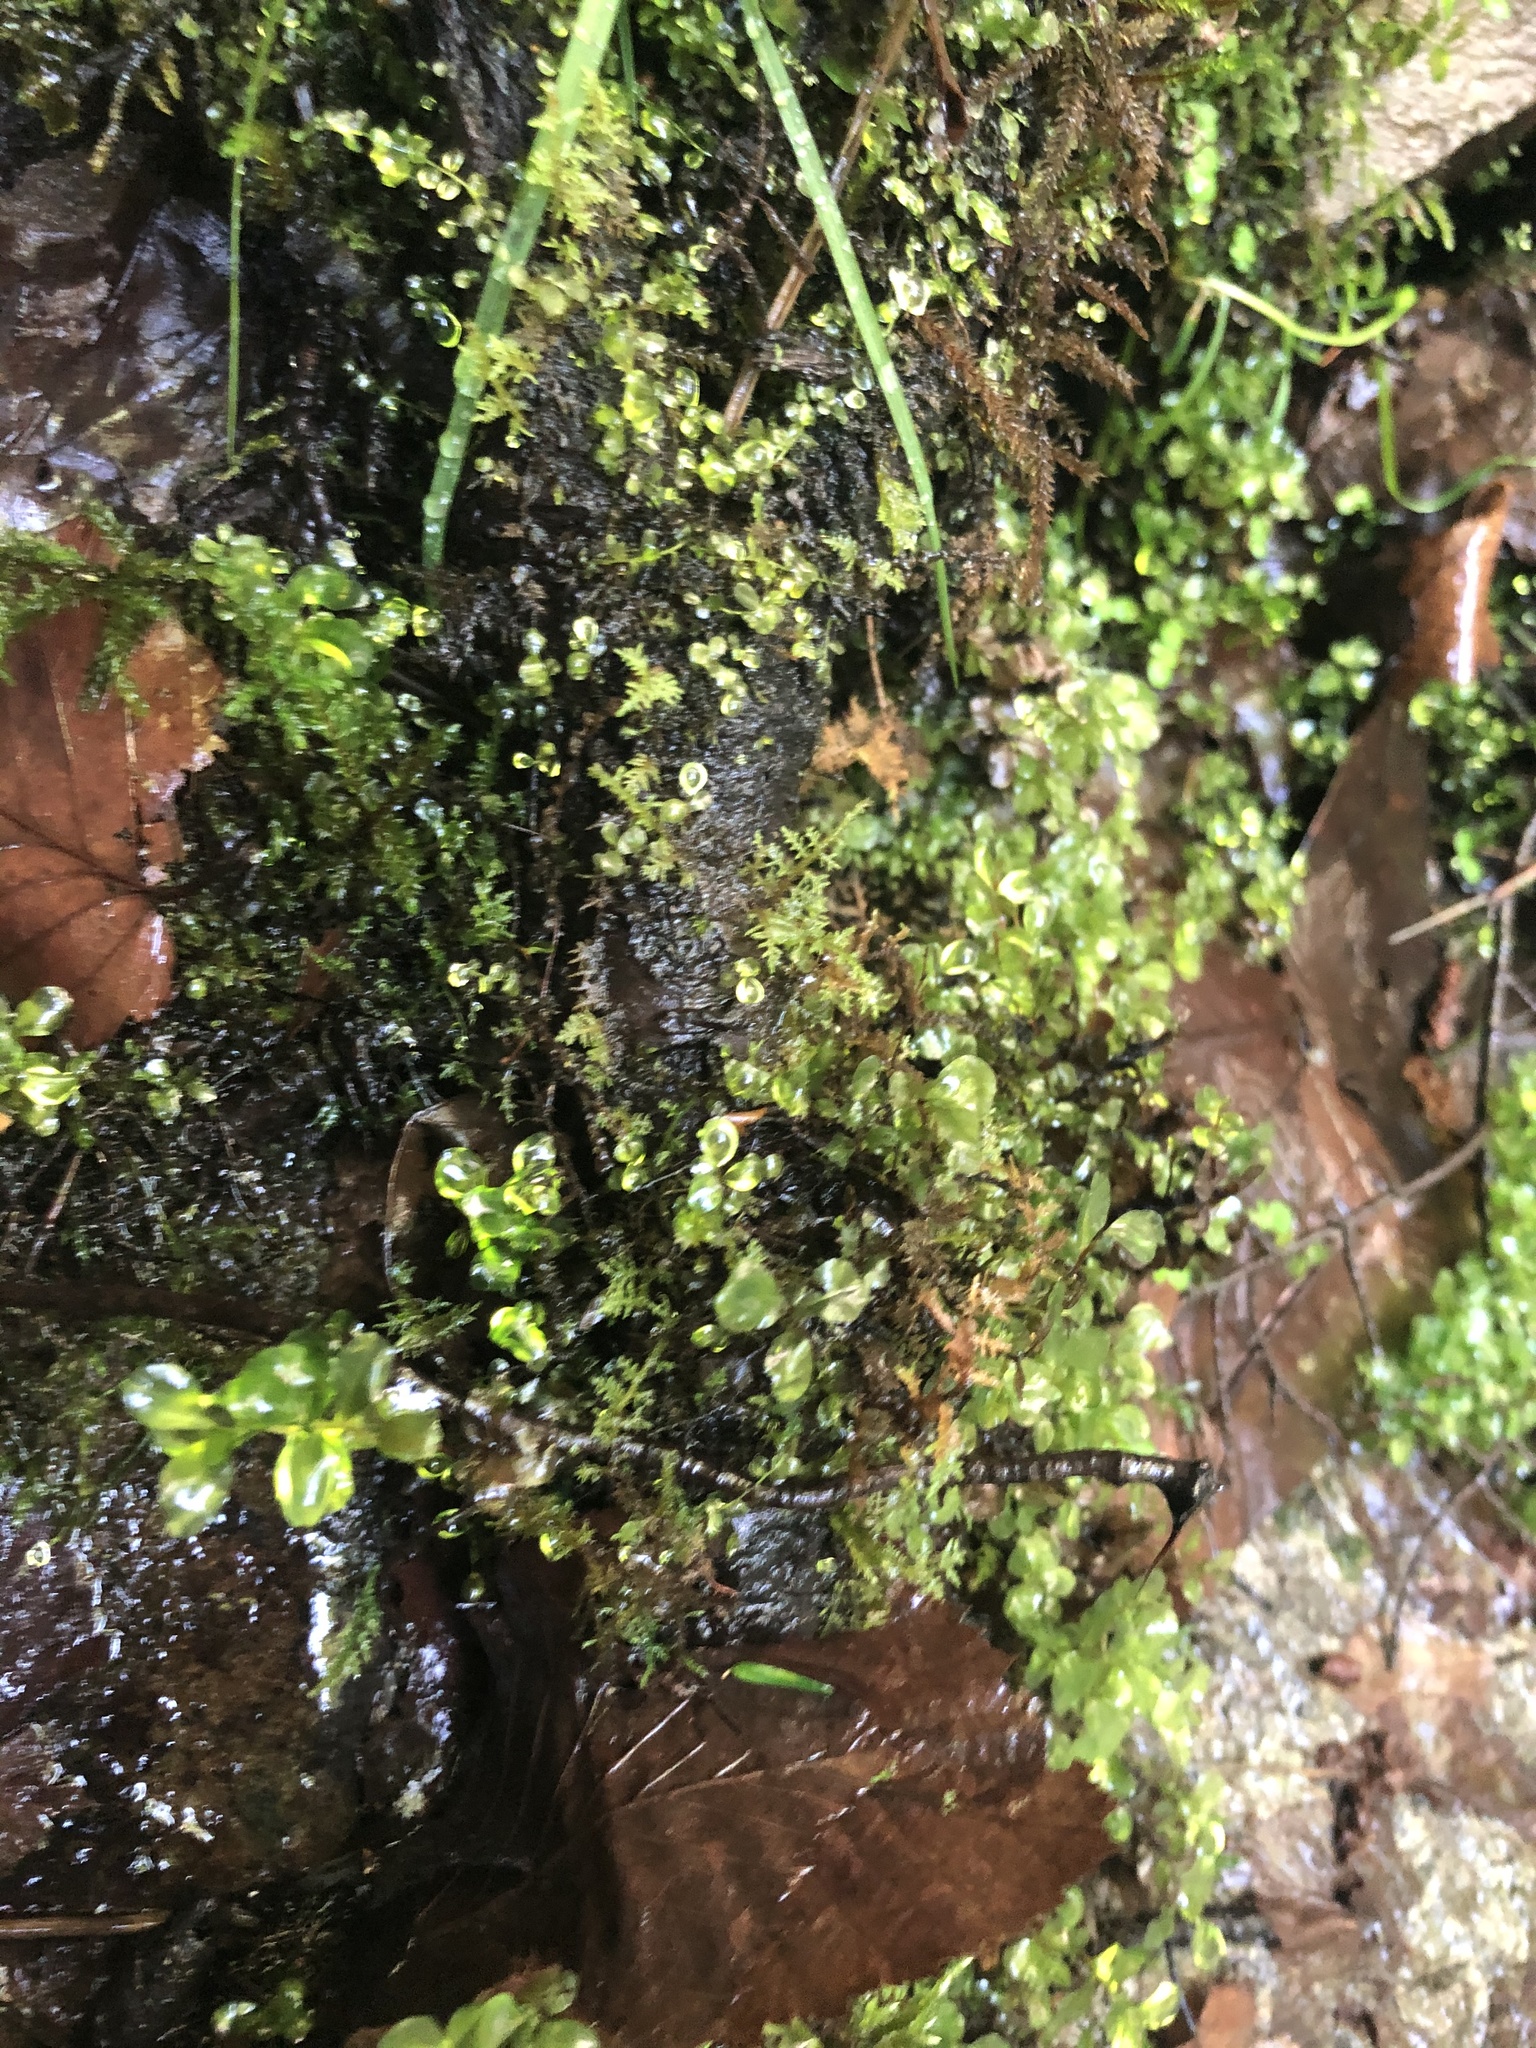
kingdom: Plantae
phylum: Bryophyta
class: Bryopsida
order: Bryales
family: Mniaceae
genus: Rhizomnium
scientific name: Rhizomnium punctatum
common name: Dotted leafy moss
